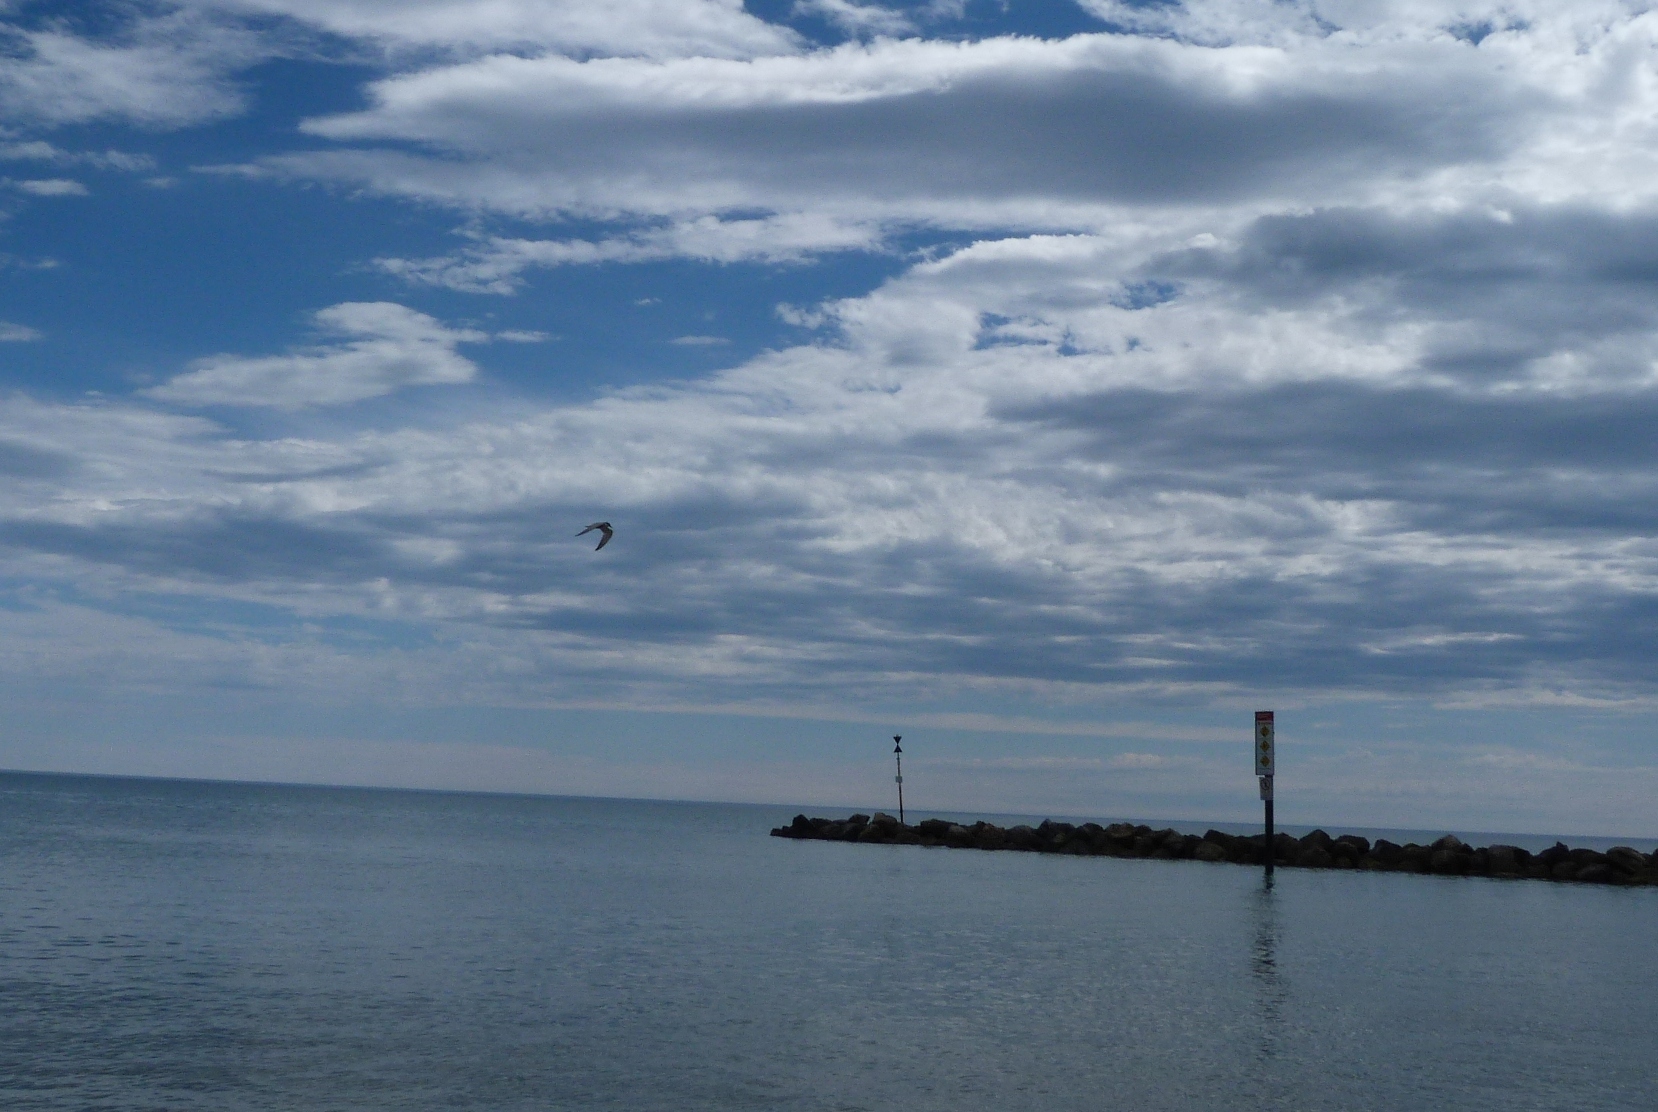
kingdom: Animalia
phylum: Chordata
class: Aves
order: Charadriiformes
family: Laridae
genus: Chlidonias
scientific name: Chlidonias hybrida
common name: Whiskered tern
